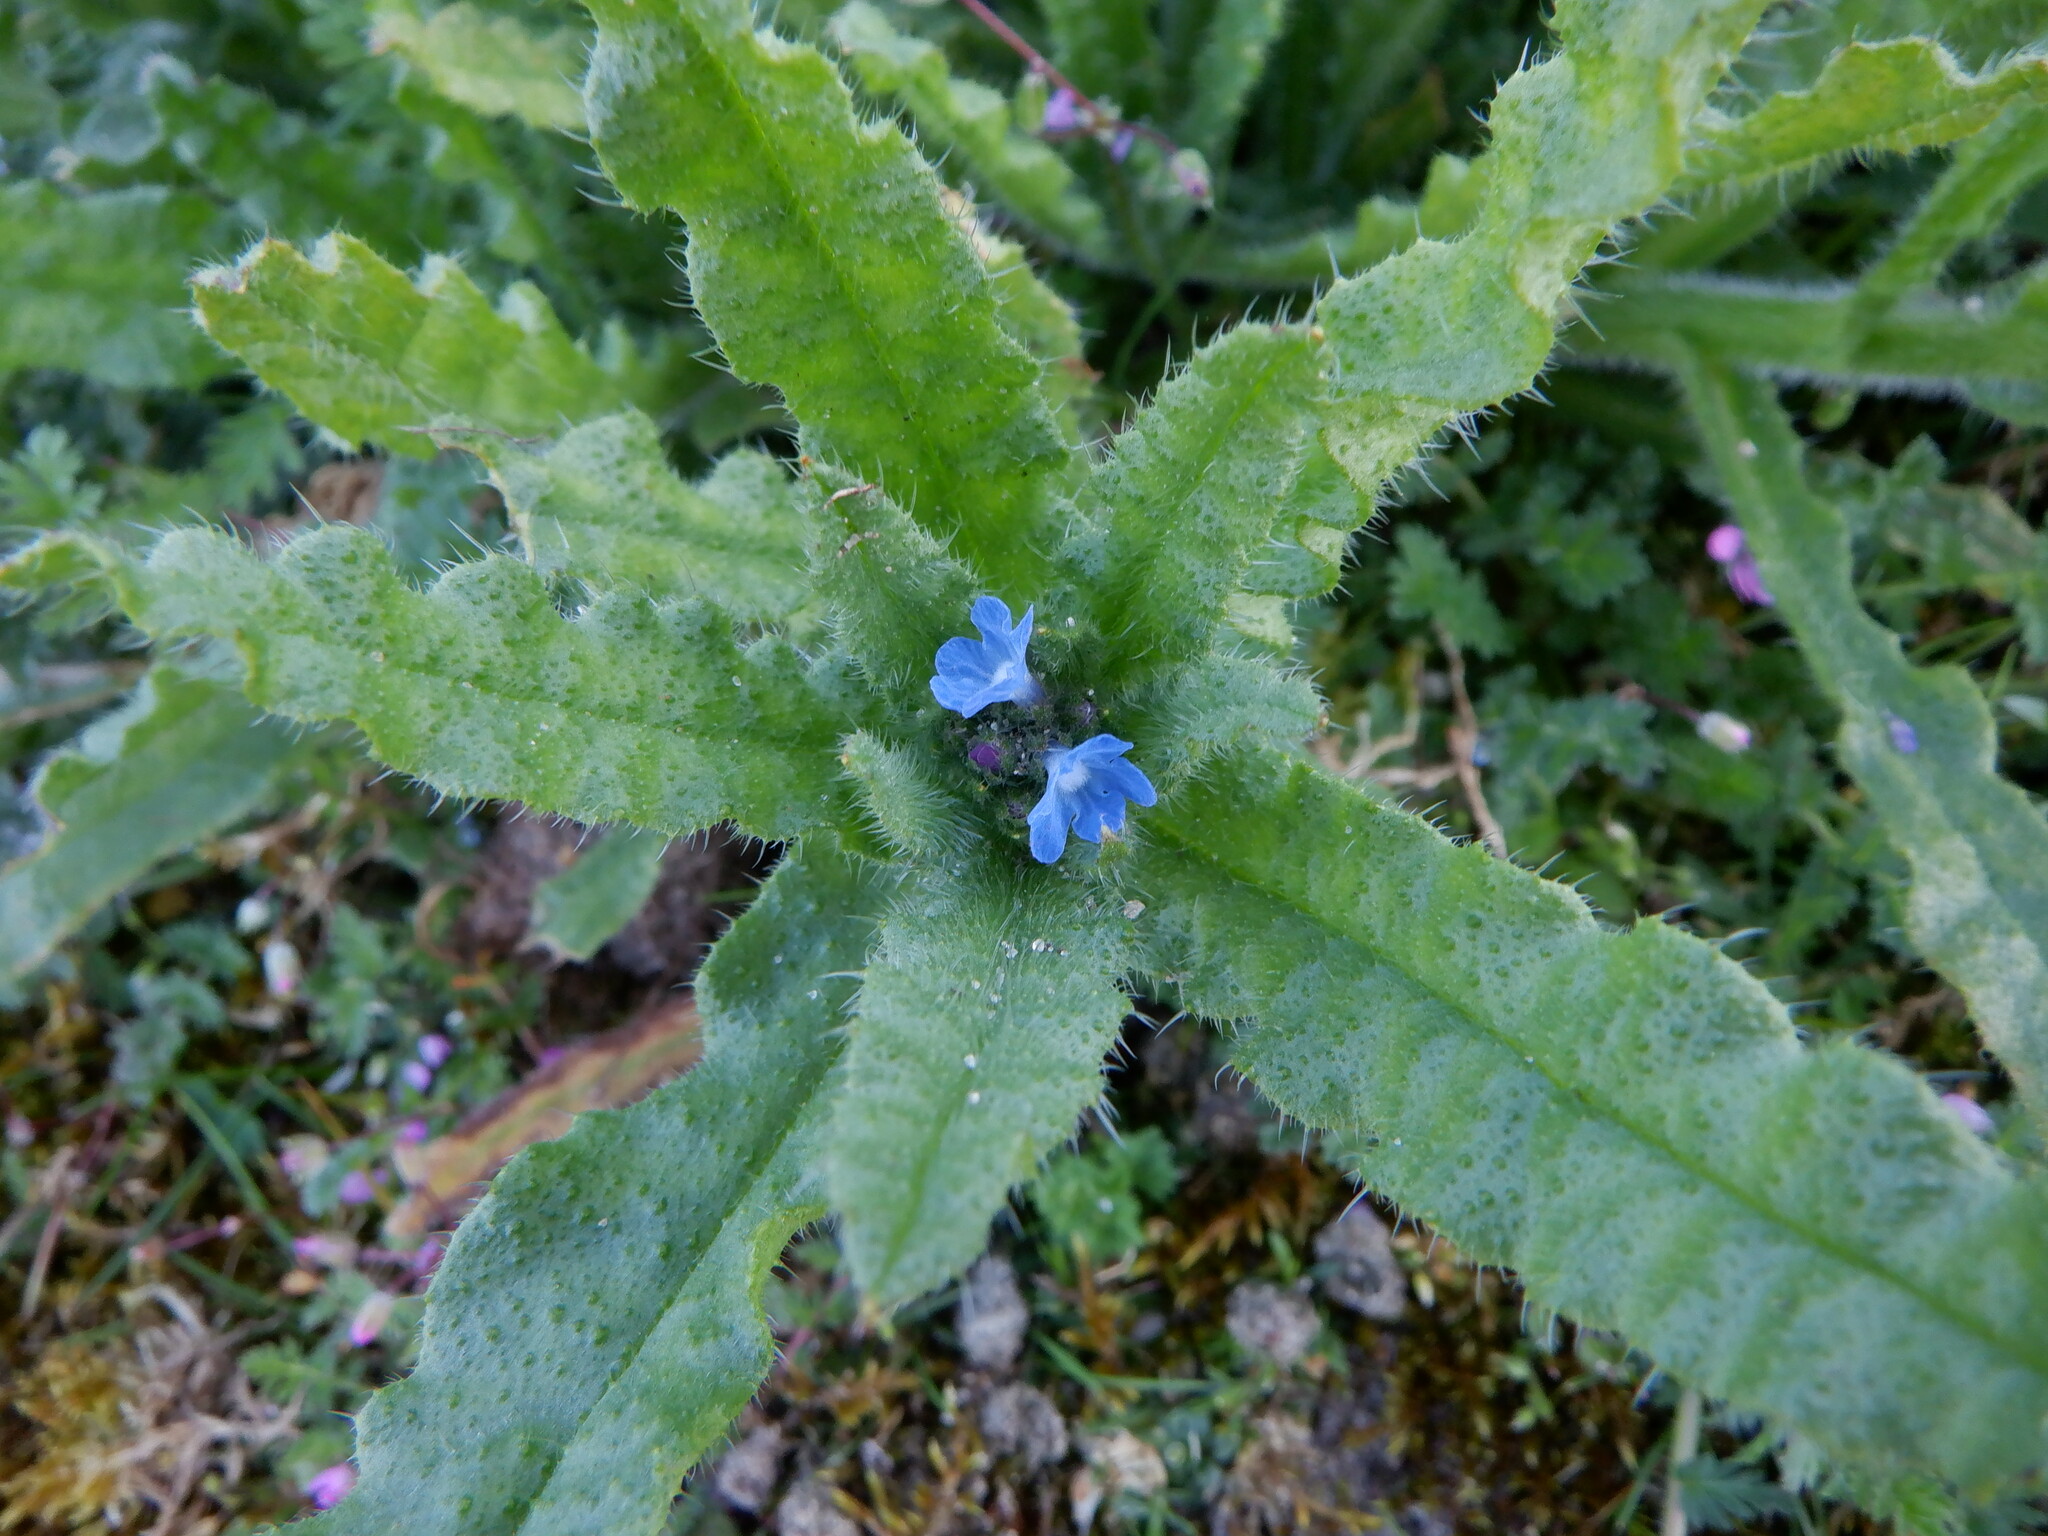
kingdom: Plantae
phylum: Tracheophyta
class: Magnoliopsida
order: Boraginales
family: Boraginaceae
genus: Lycopsis
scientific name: Lycopsis arvensis
